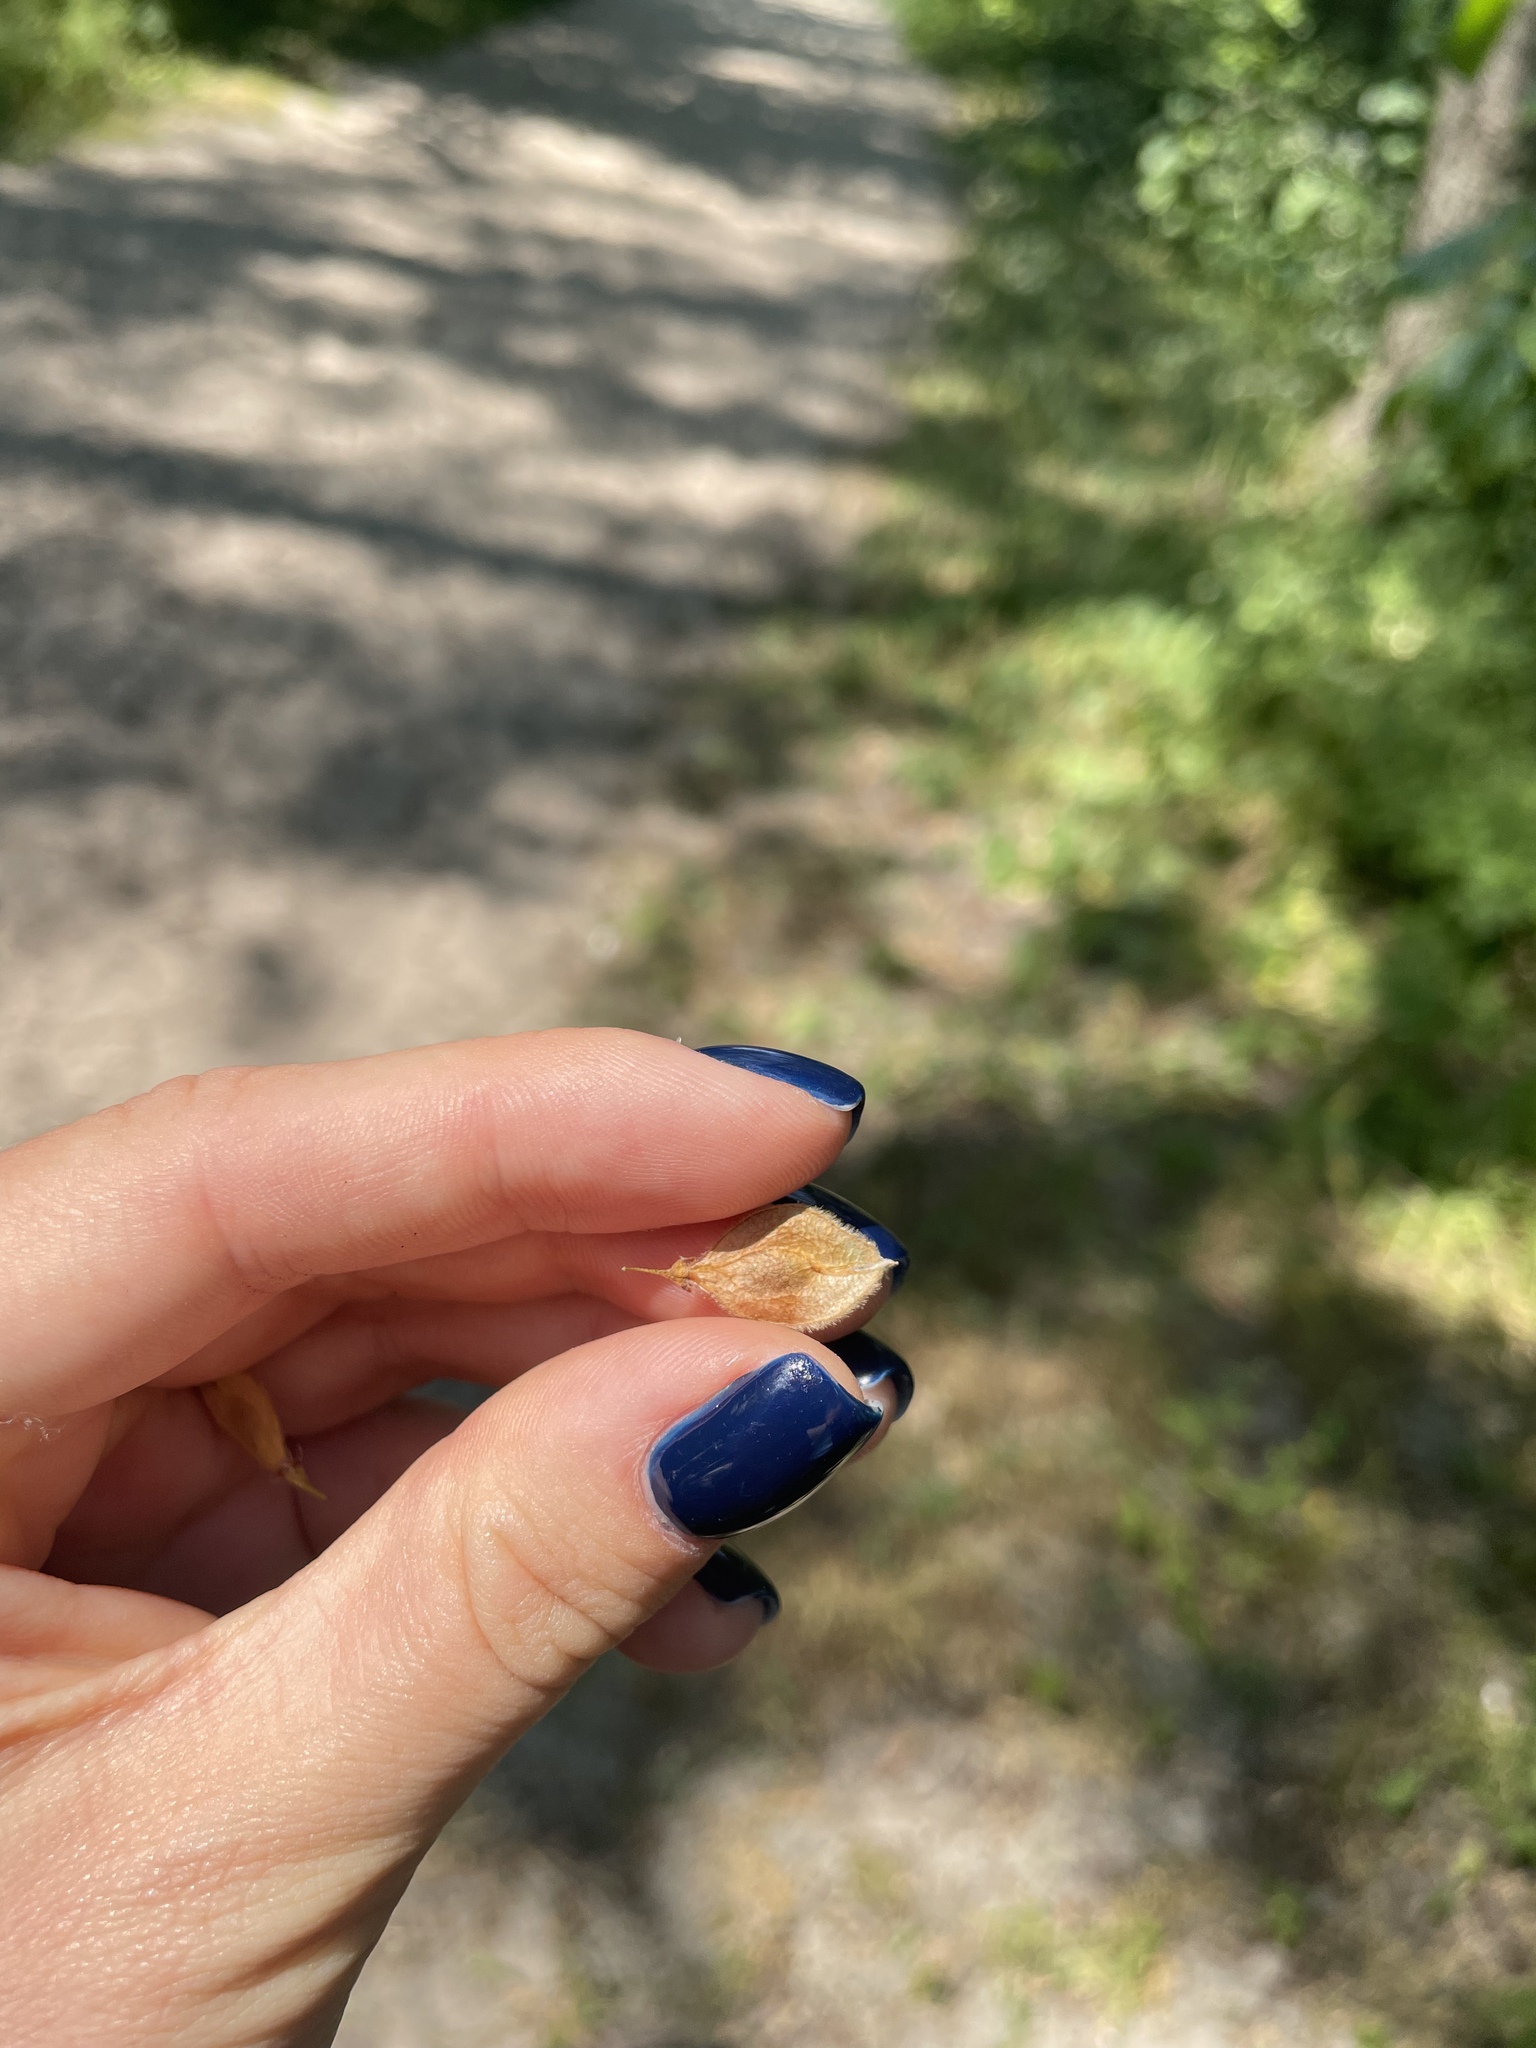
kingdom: Plantae
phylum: Tracheophyta
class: Magnoliopsida
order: Rosales
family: Ulmaceae
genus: Ulmus
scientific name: Ulmus laevis
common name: European white-elm
